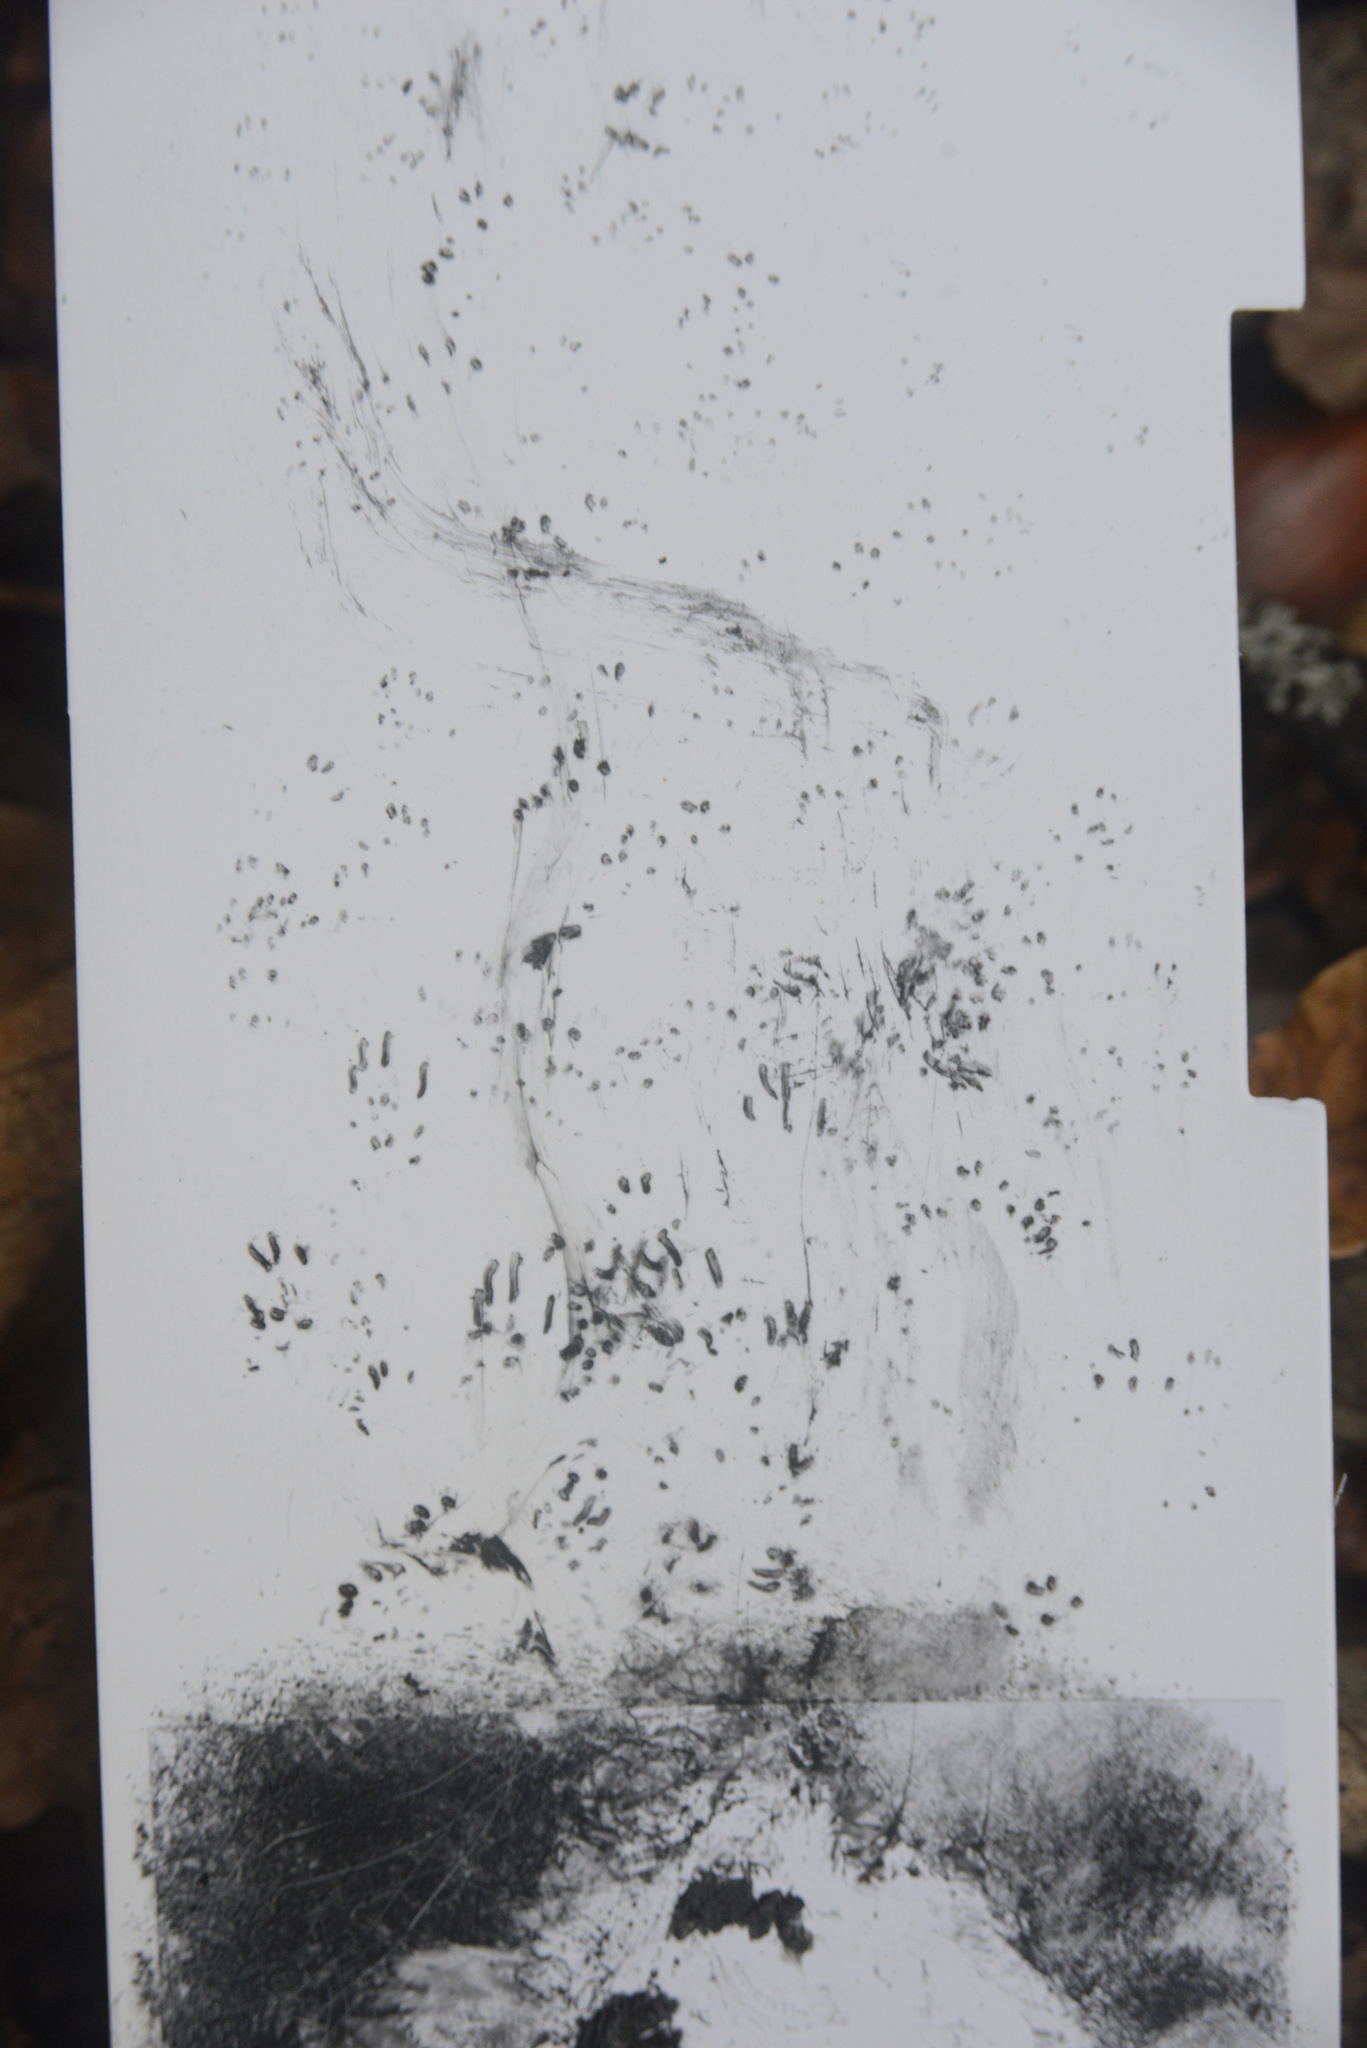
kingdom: Animalia
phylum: Chordata
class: Mammalia
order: Rodentia
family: Muridae
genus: Mus
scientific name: Mus musculus
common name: House mouse
